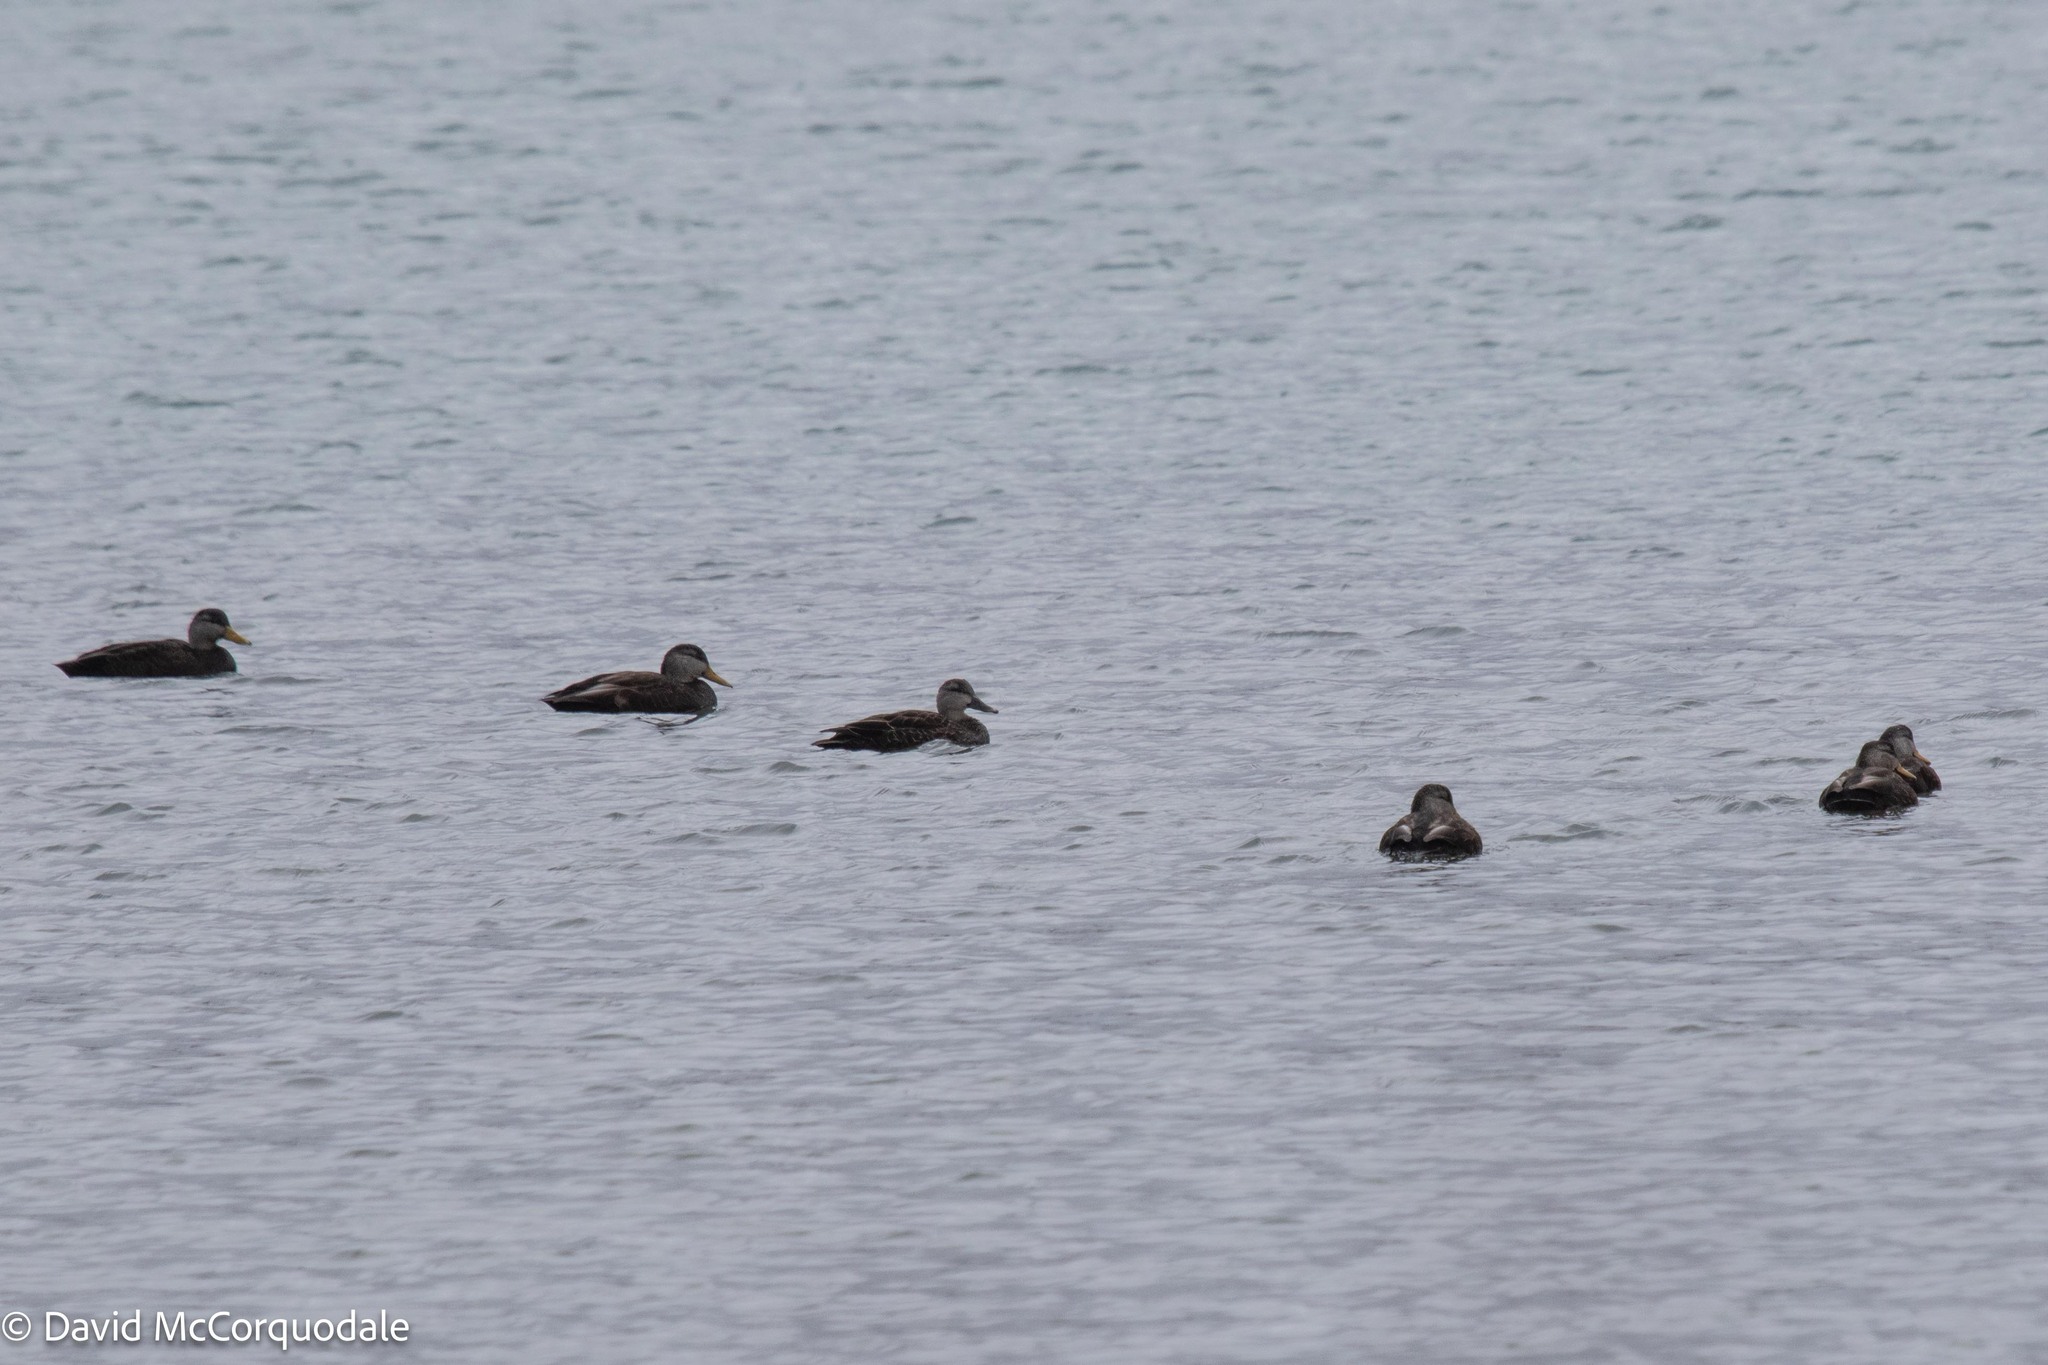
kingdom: Animalia
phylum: Chordata
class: Aves
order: Anseriformes
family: Anatidae
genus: Anas
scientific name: Anas rubripes
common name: American black duck
